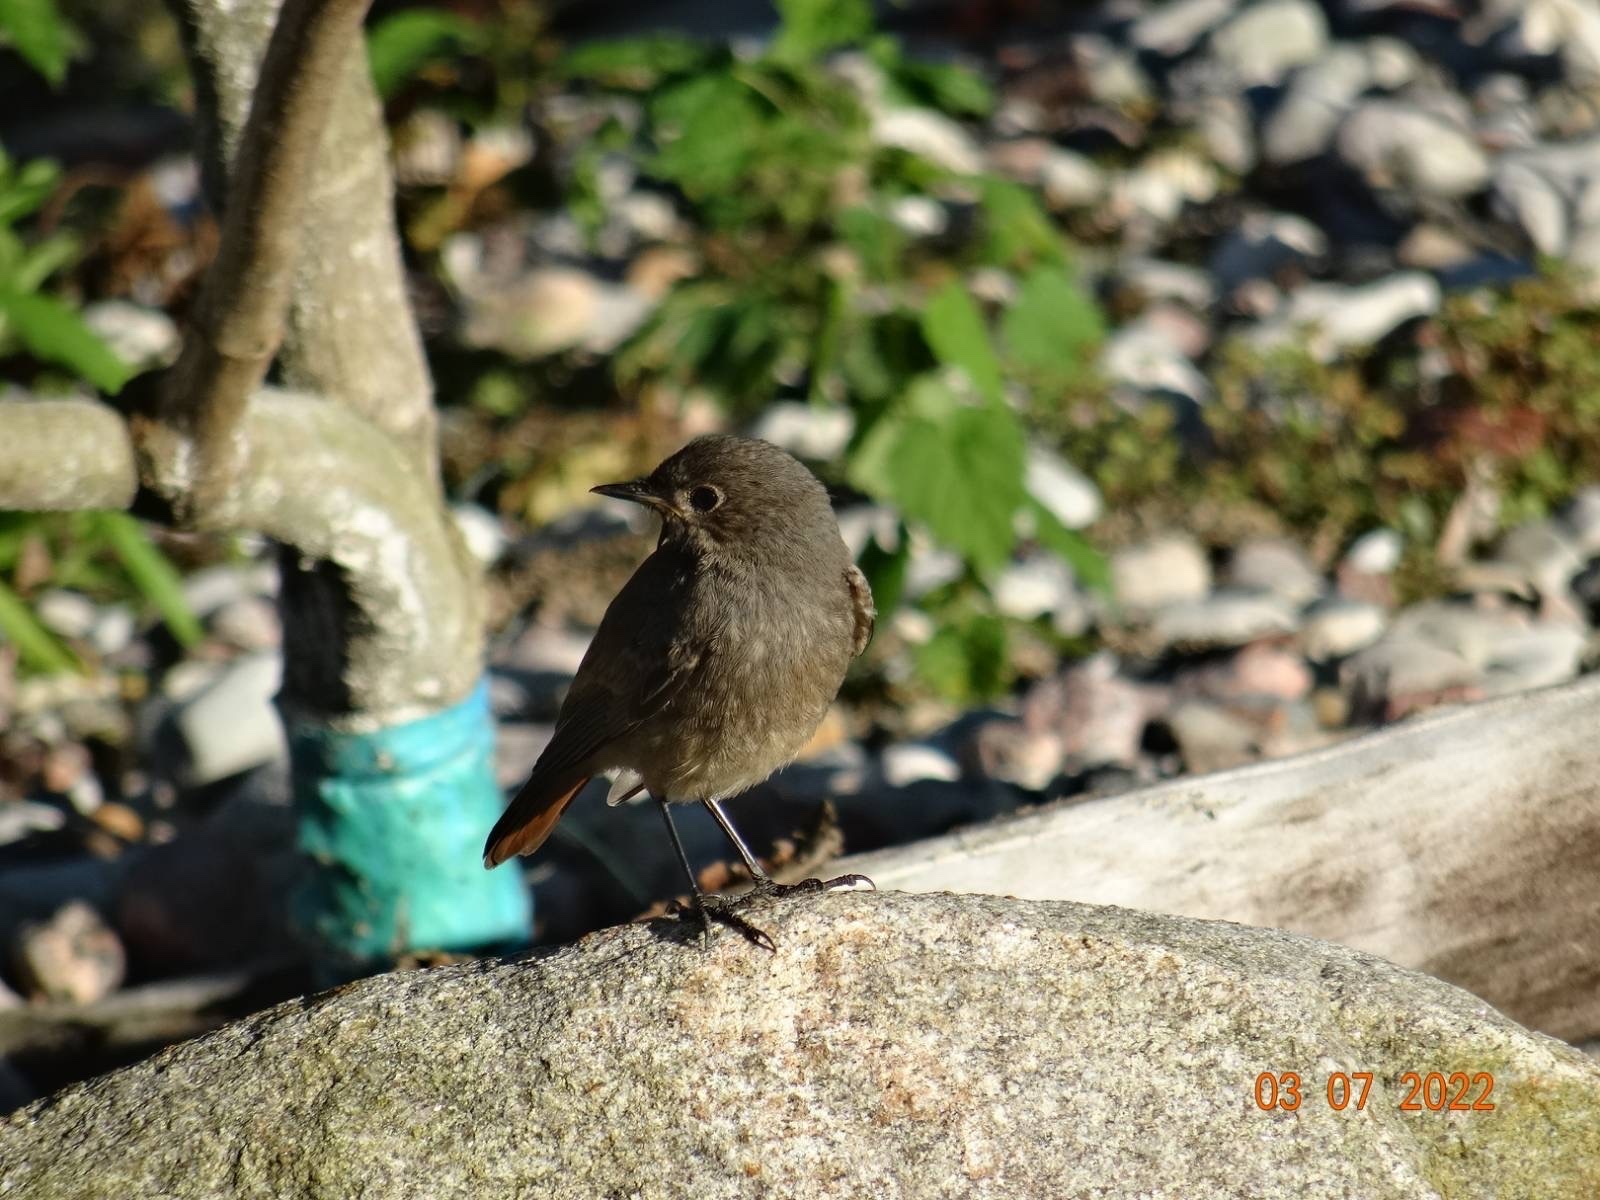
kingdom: Animalia
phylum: Chordata
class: Aves
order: Passeriformes
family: Muscicapidae
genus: Phoenicurus
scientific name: Phoenicurus ochruros
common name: Black redstart
